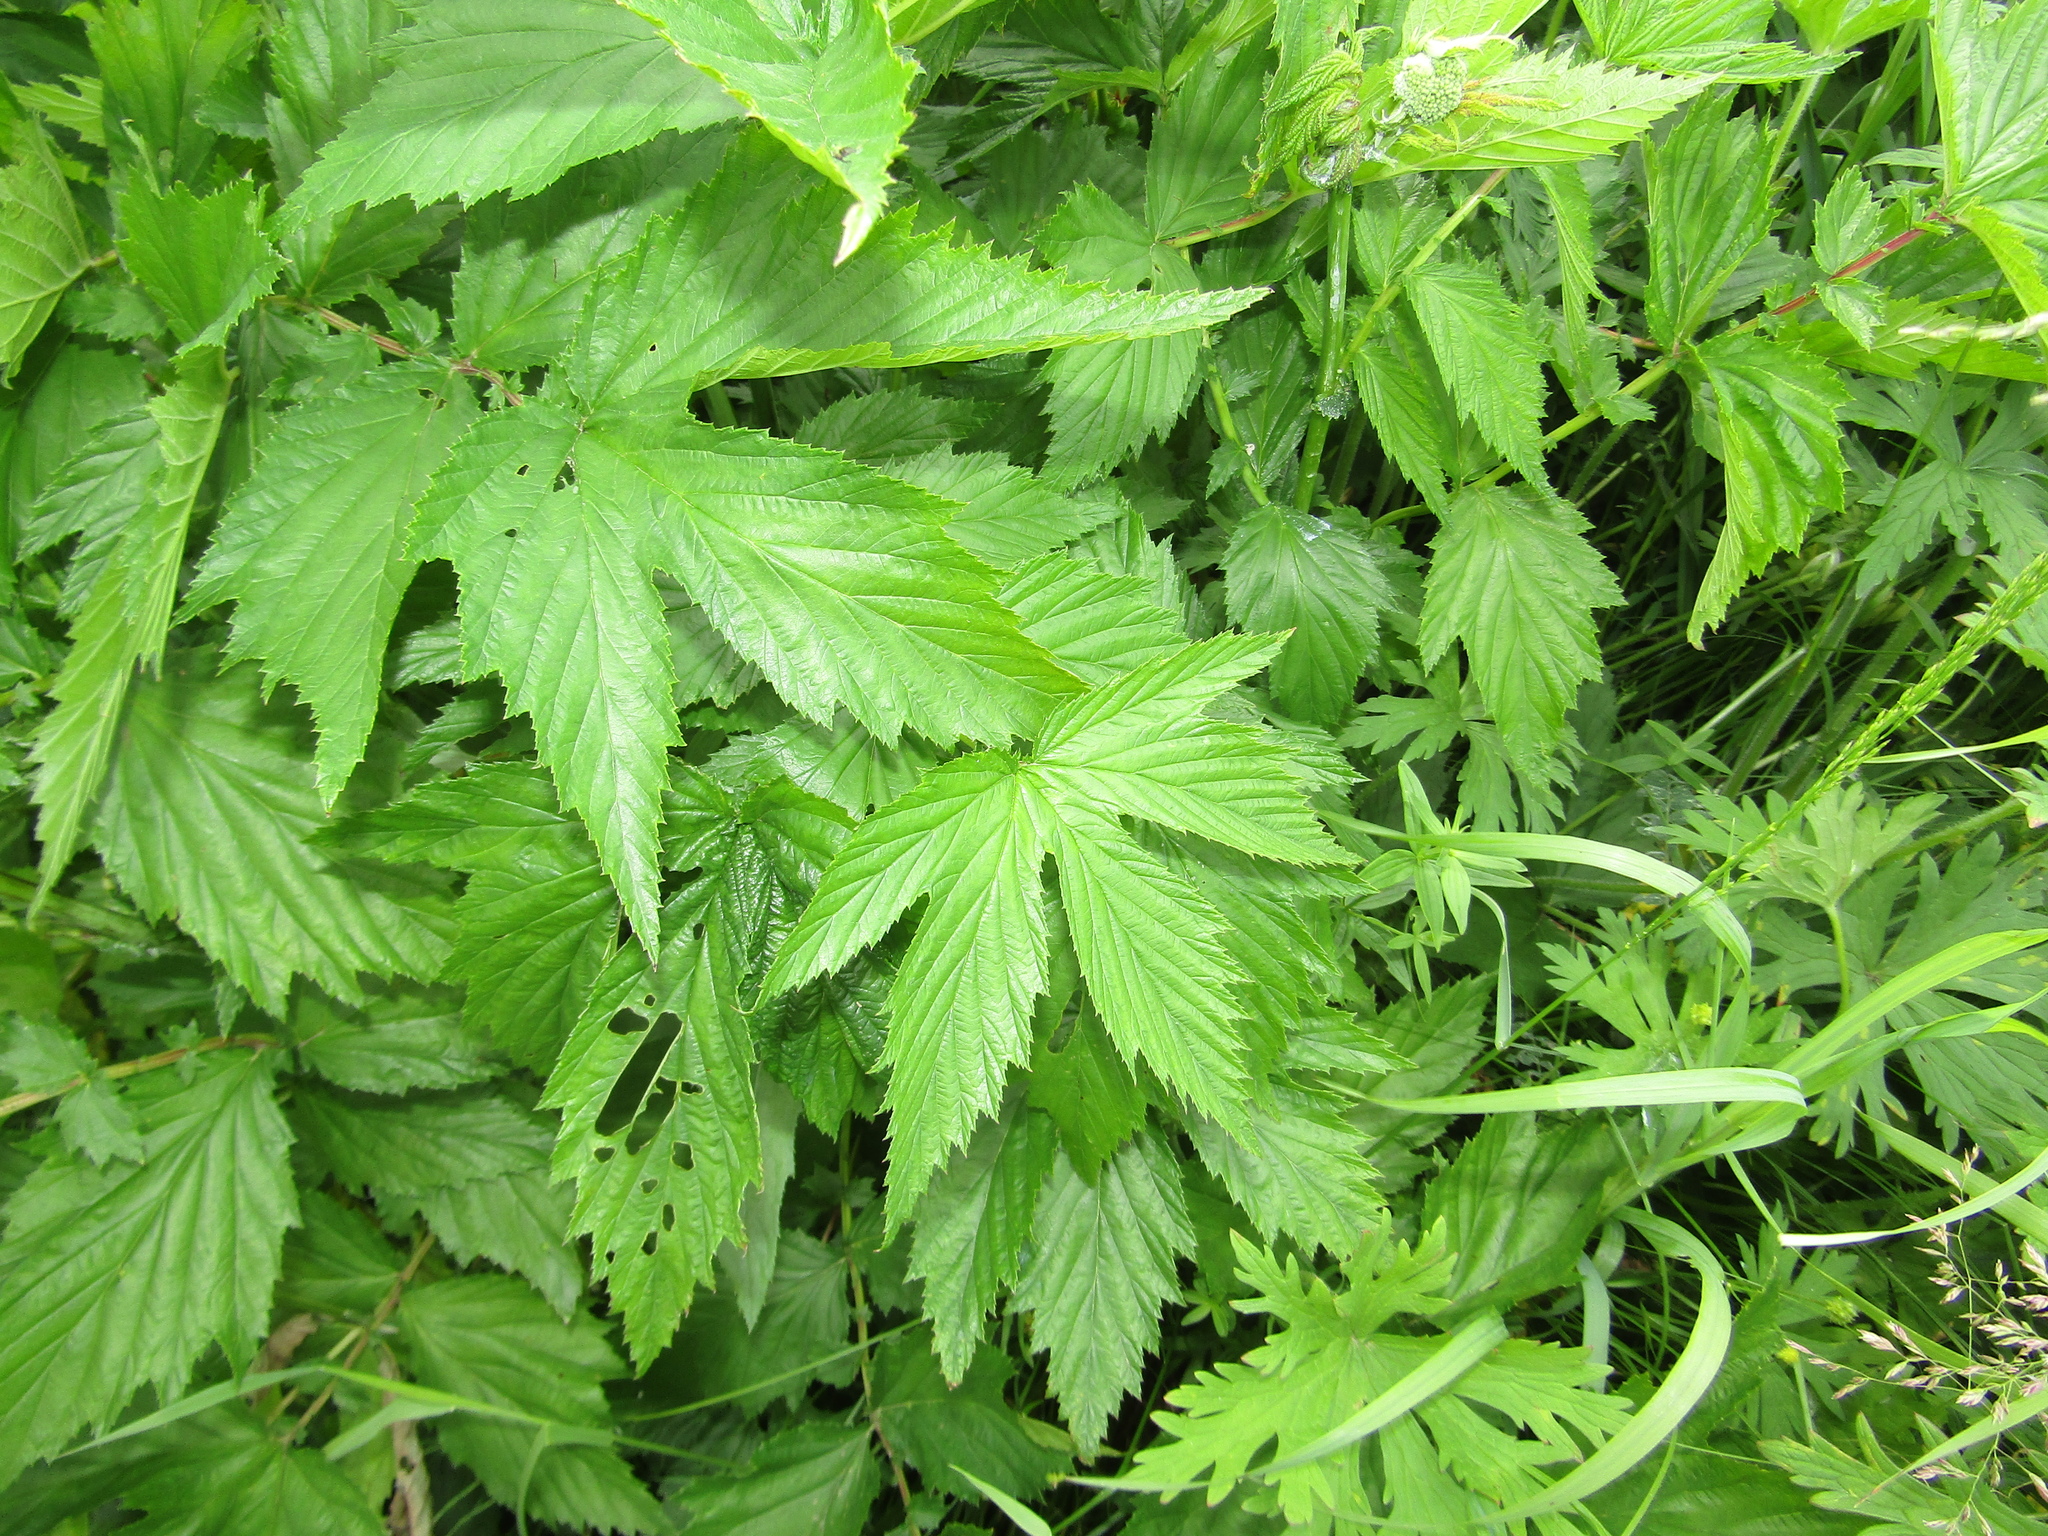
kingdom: Plantae
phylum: Tracheophyta
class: Magnoliopsida
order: Rosales
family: Rosaceae
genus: Filipendula
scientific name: Filipendula ulmaria
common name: Meadowsweet
